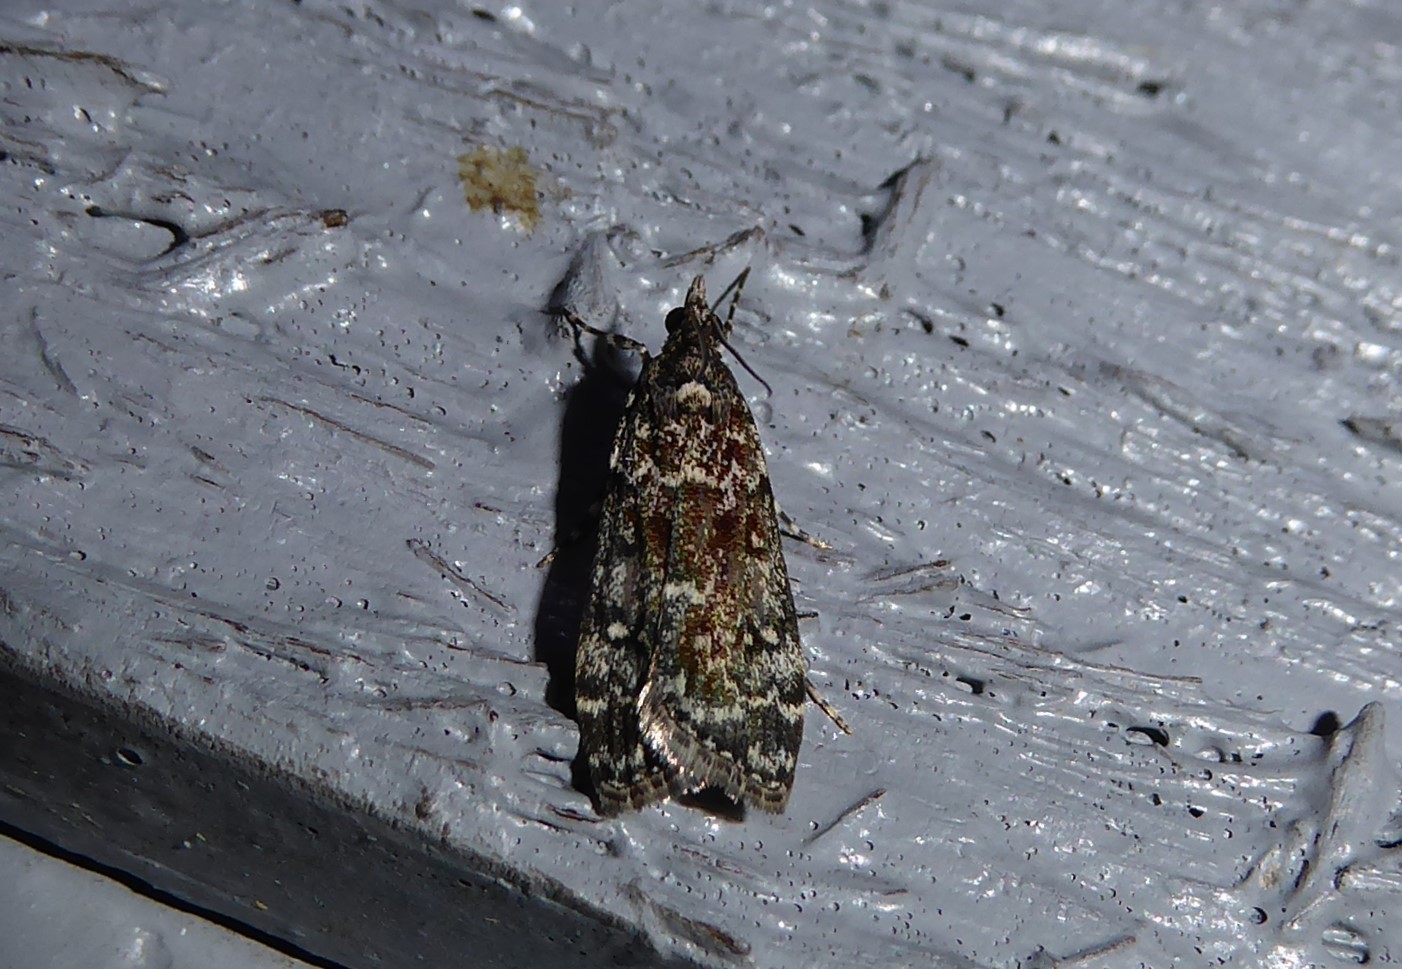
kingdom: Animalia
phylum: Arthropoda
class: Insecta
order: Lepidoptera
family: Crambidae
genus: Eudonia
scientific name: Eudonia philerga
